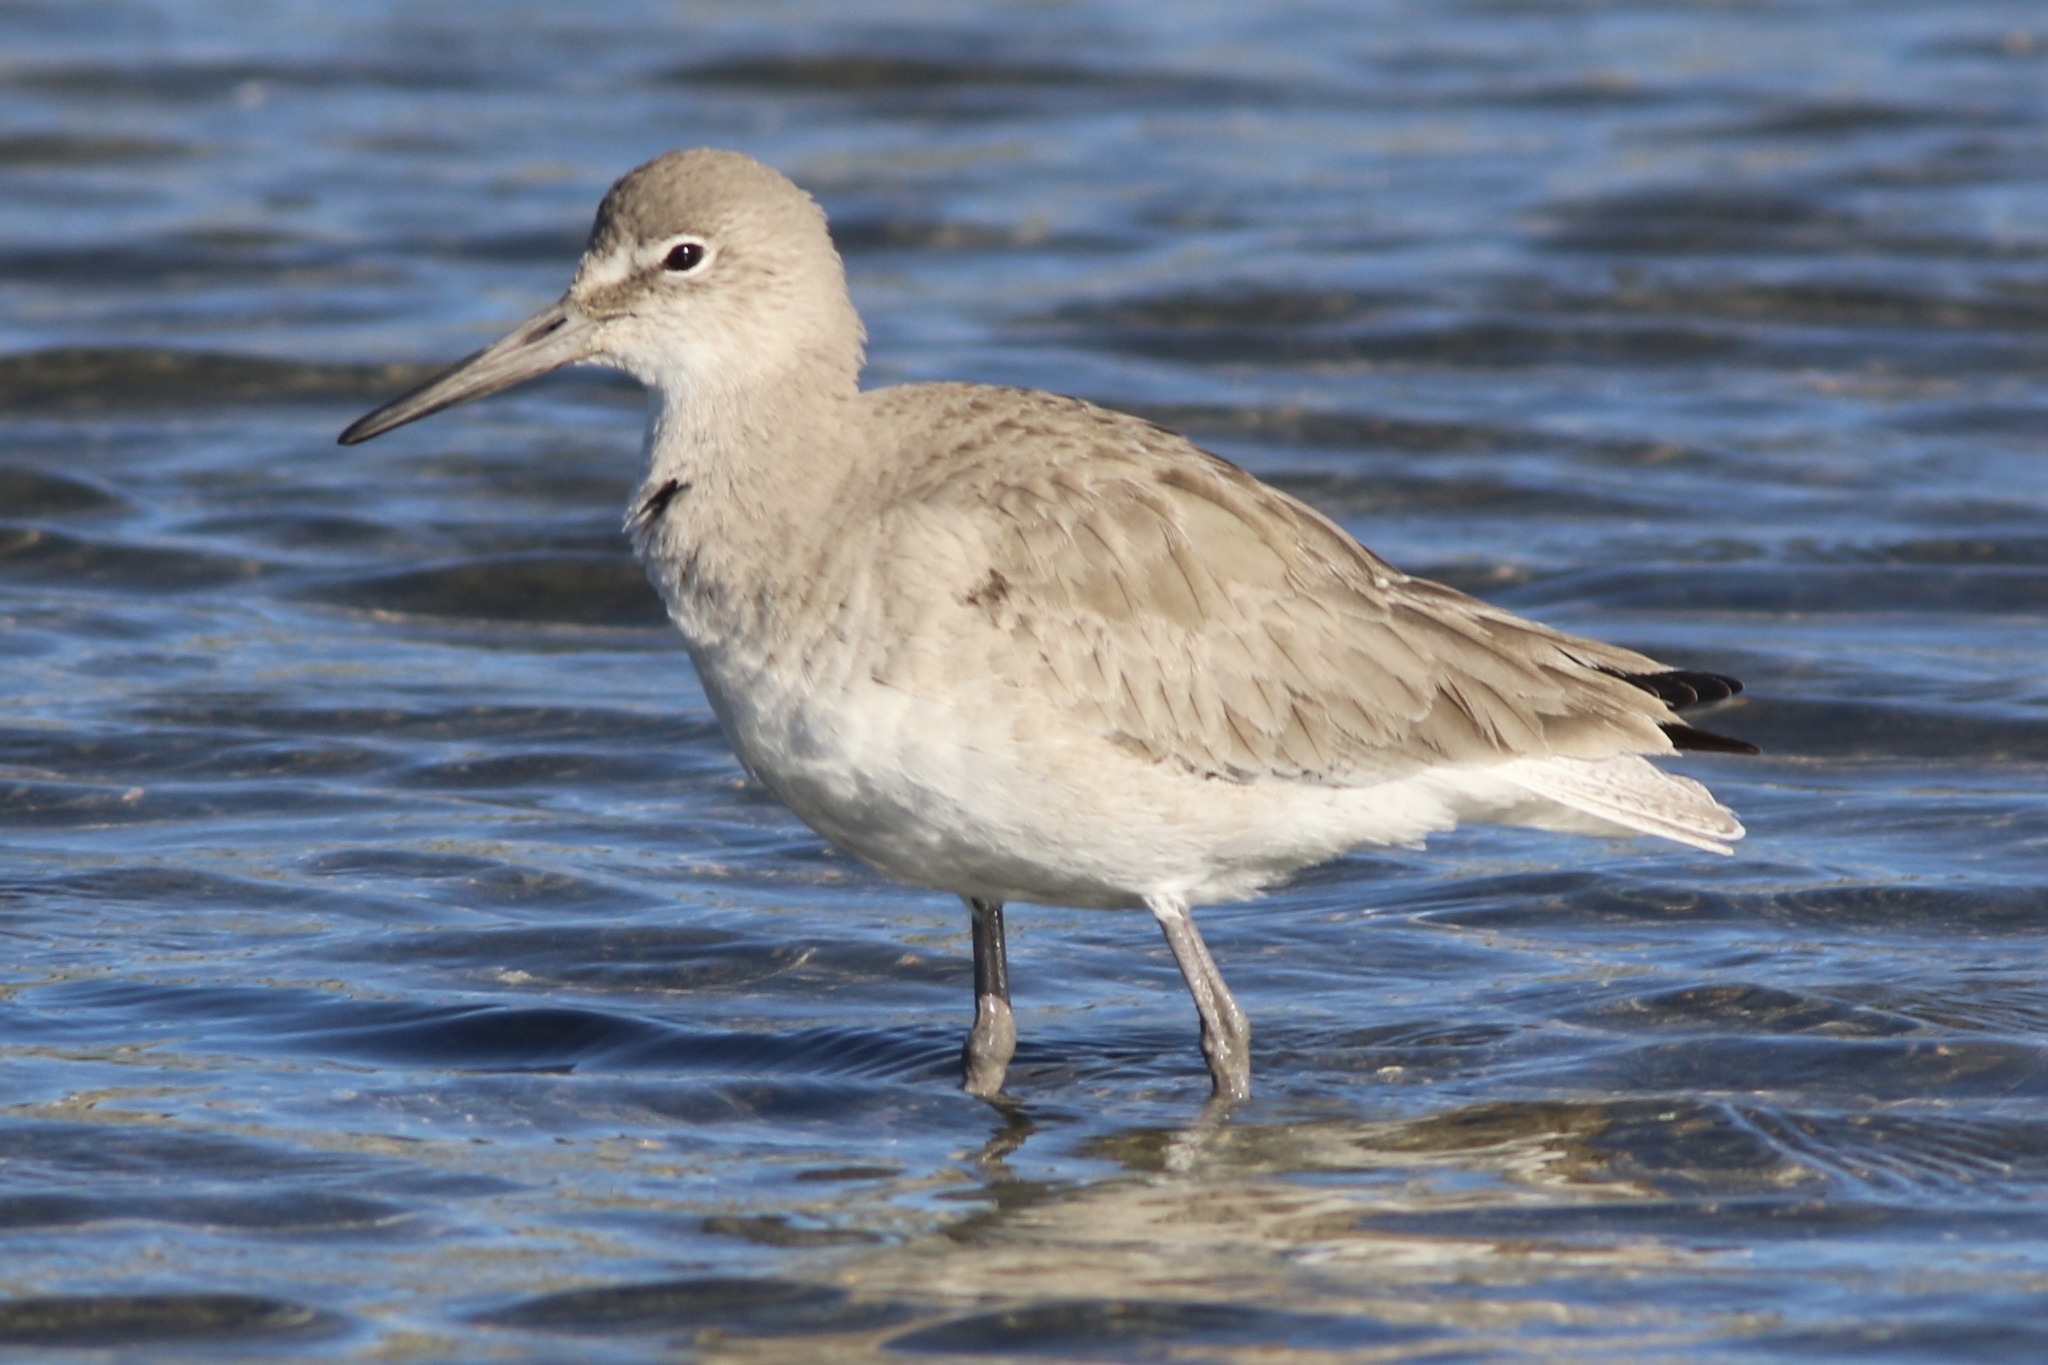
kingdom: Animalia
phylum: Chordata
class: Aves
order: Charadriiformes
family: Scolopacidae
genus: Tringa
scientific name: Tringa semipalmata
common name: Willet
